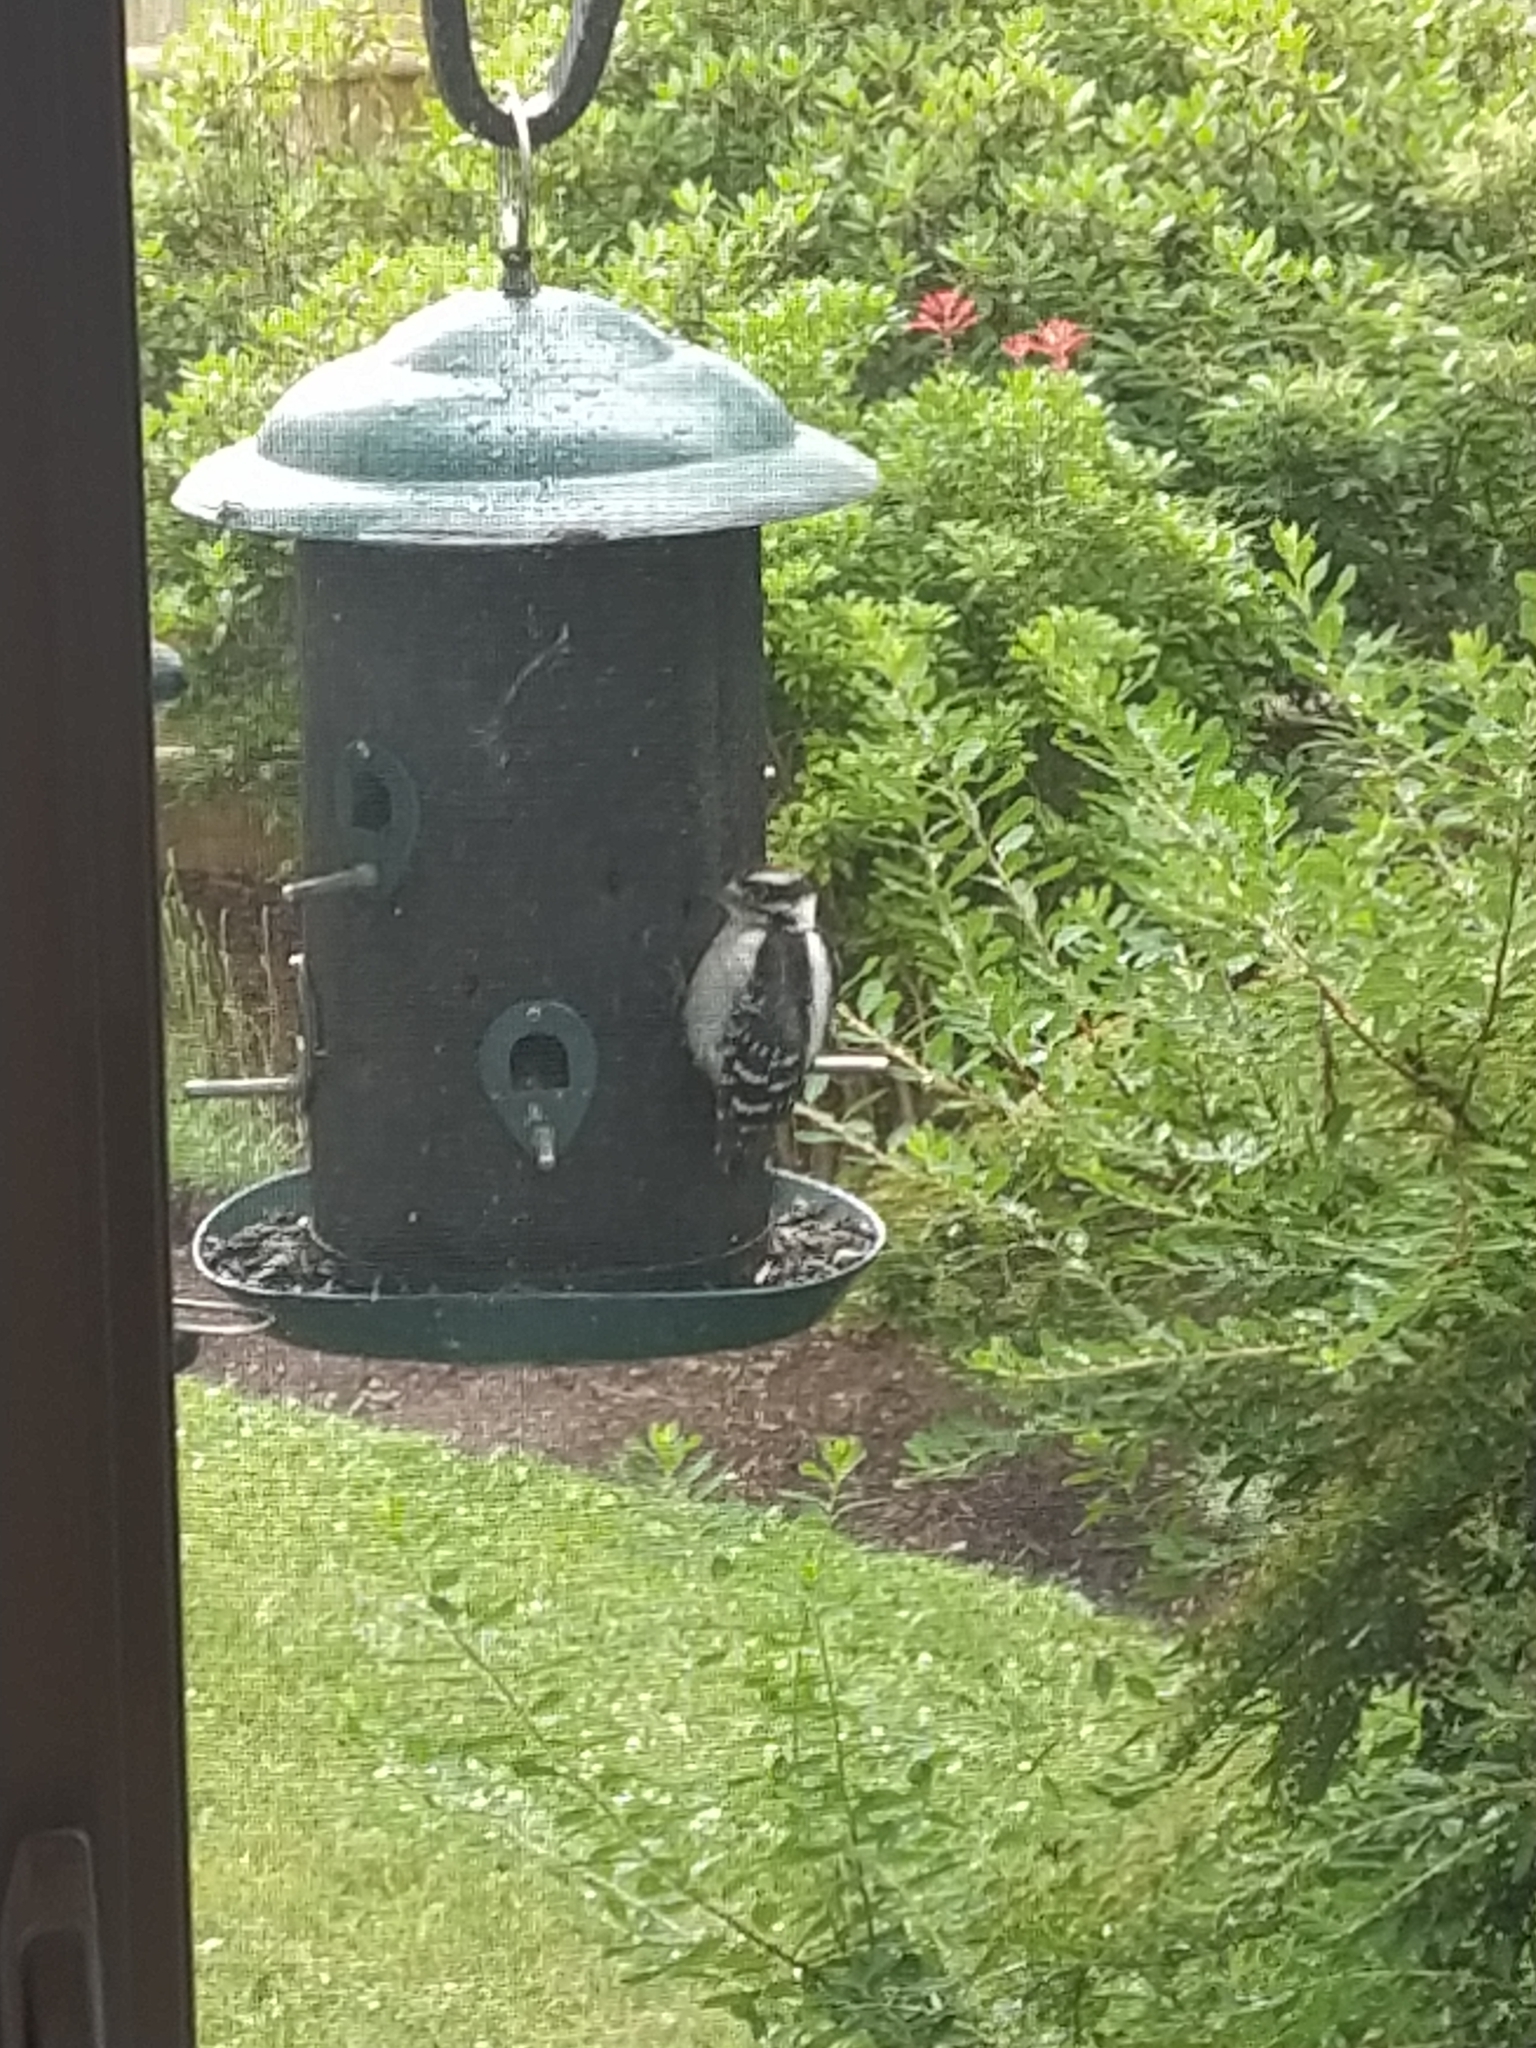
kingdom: Animalia
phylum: Chordata
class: Aves
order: Piciformes
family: Picidae
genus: Dryobates
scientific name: Dryobates pubescens
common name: Downy woodpecker
